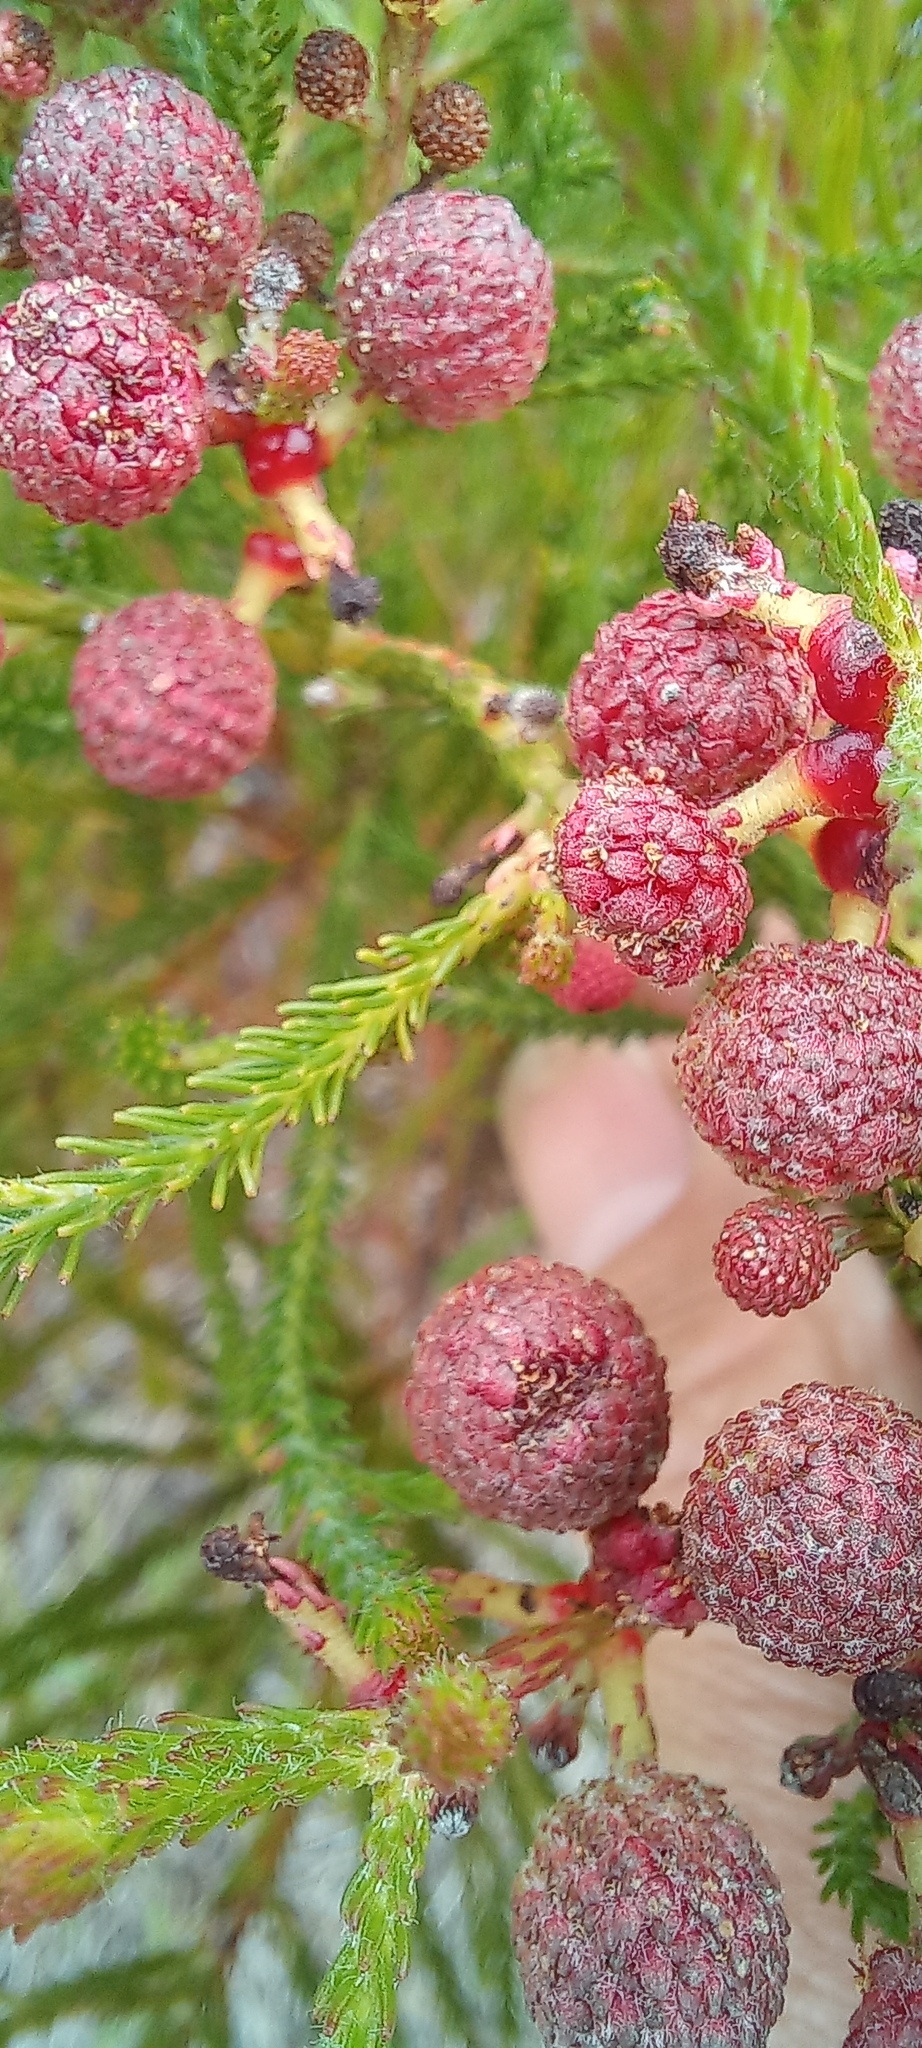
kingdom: Plantae
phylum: Tracheophyta
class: Magnoliopsida
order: Bruniales
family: Bruniaceae
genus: Berzelia
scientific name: Berzelia lanuginosa
